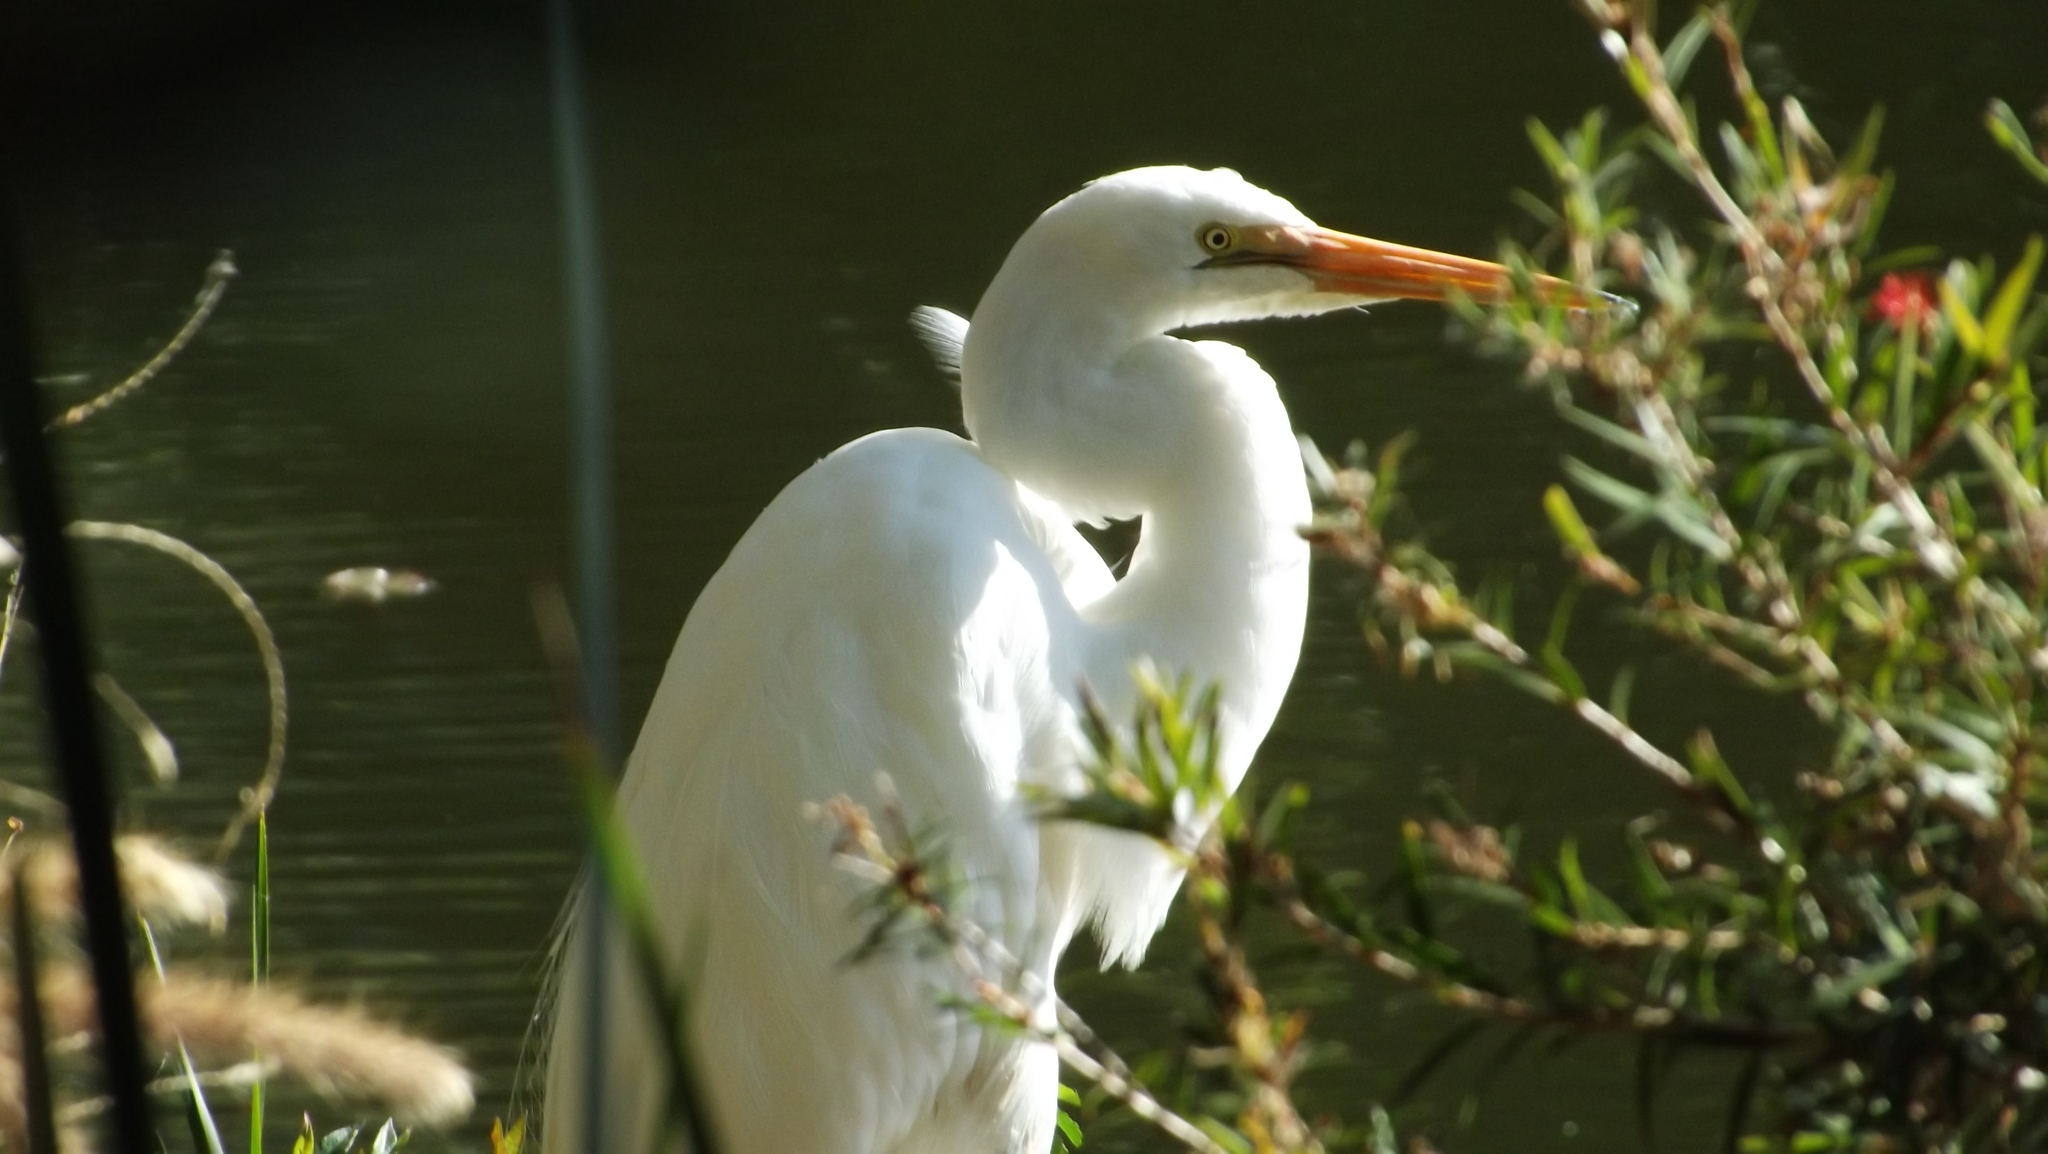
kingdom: Animalia
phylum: Chordata
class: Aves
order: Pelecaniformes
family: Ardeidae
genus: Ardea
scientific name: Ardea alba
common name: Great egret
